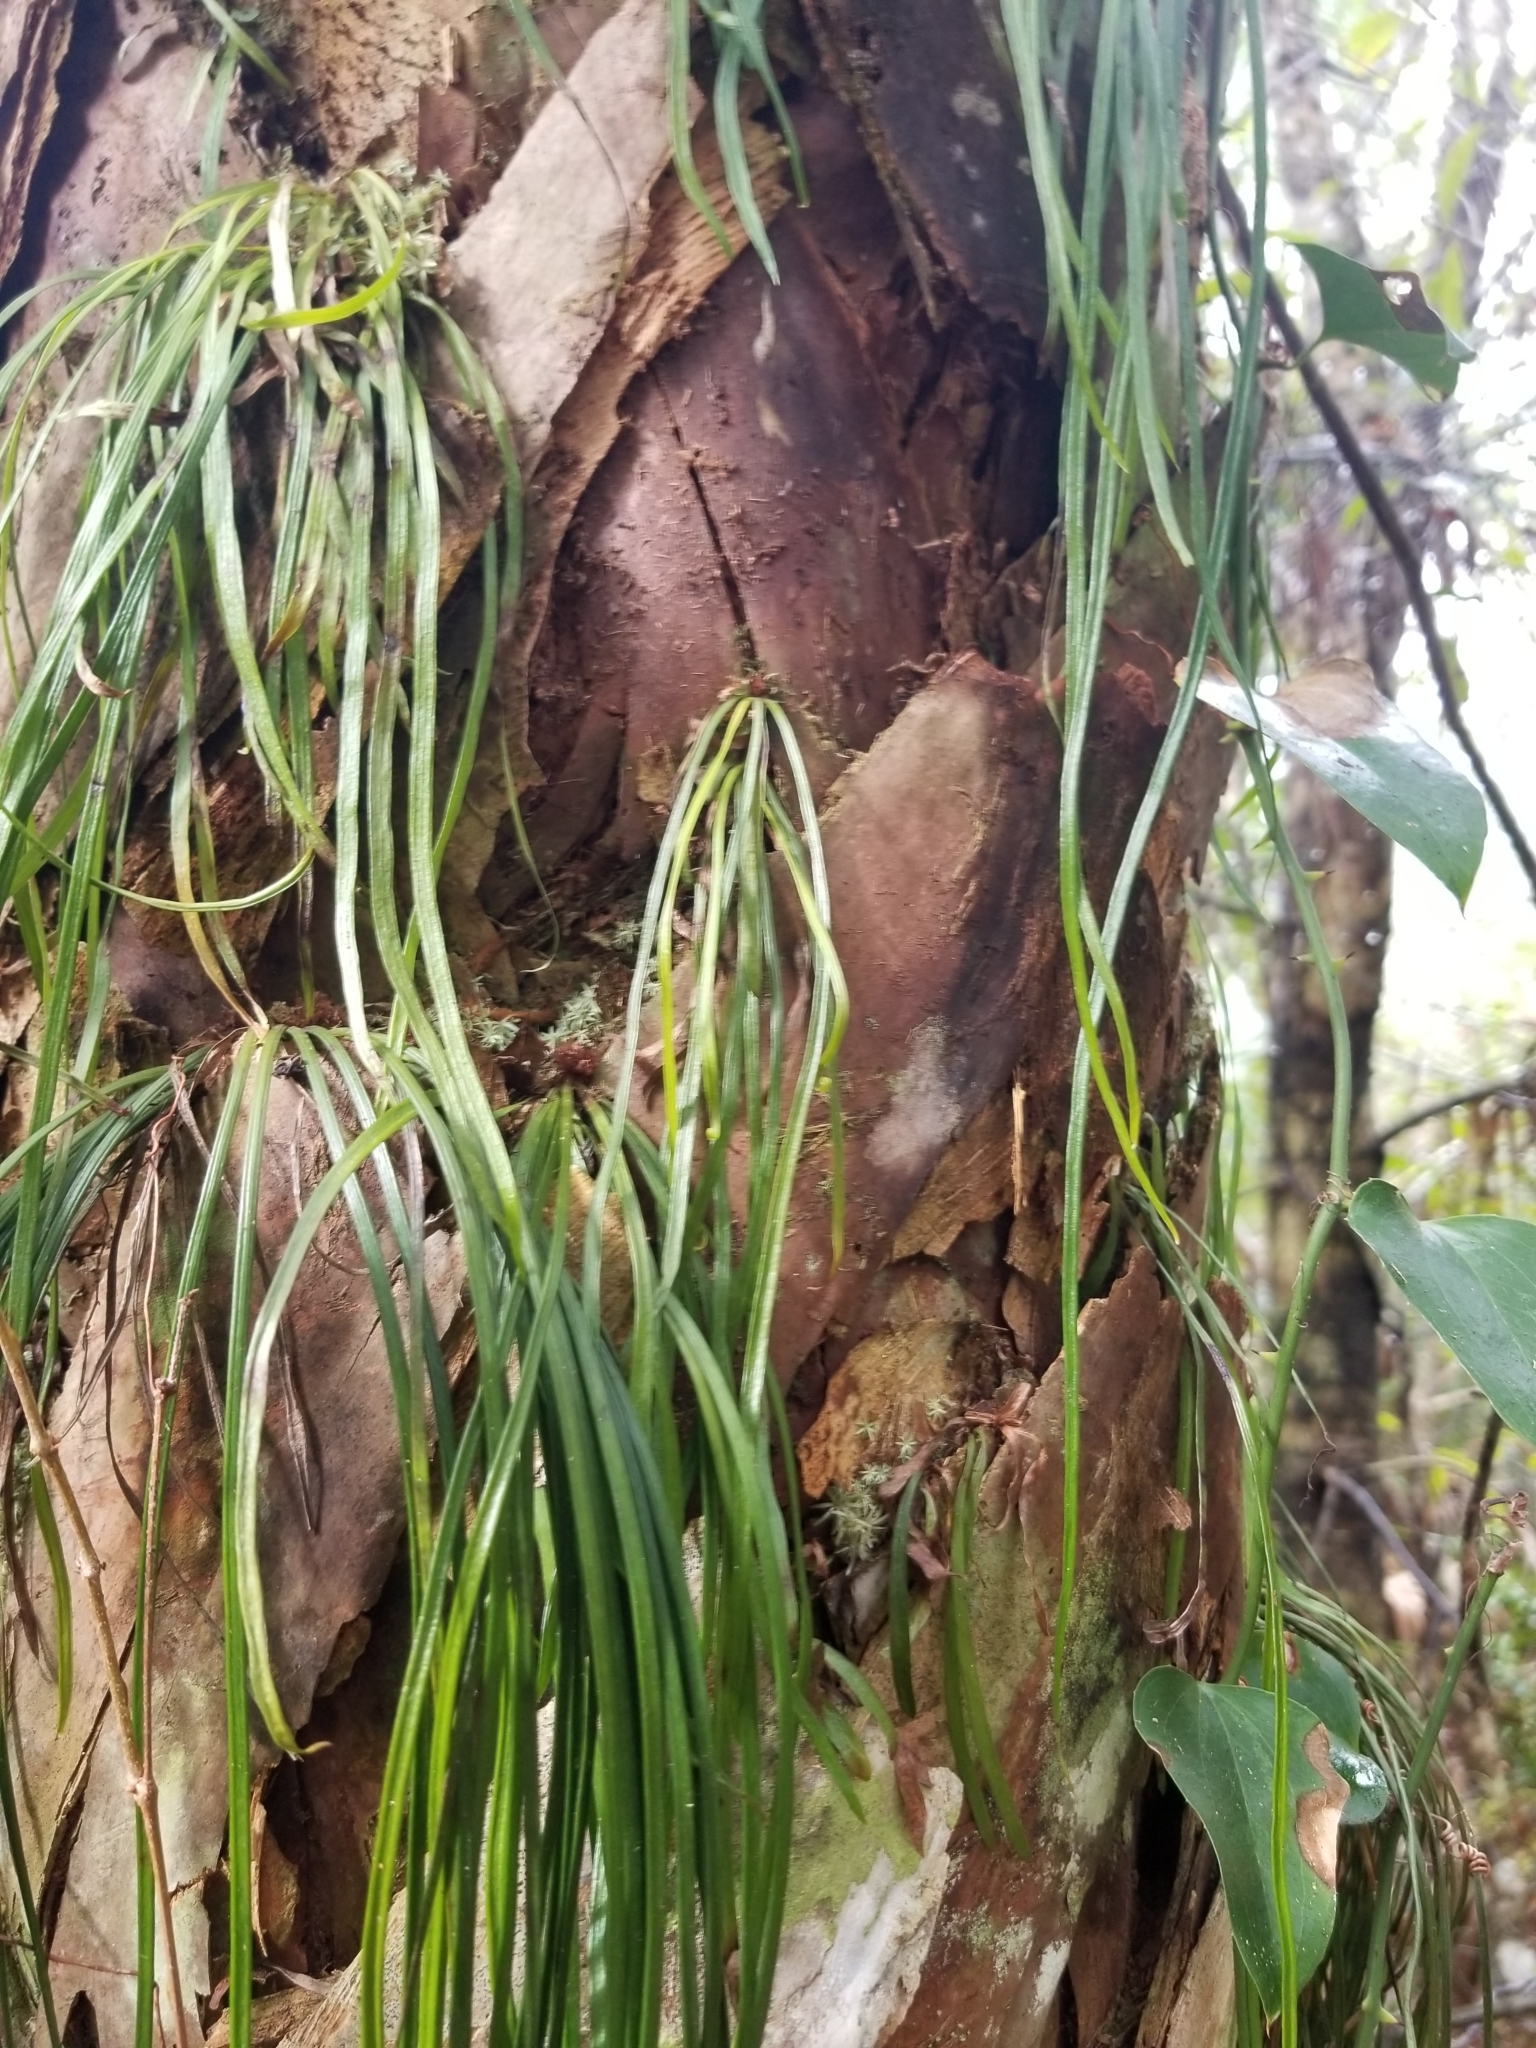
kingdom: Plantae
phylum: Tracheophyta
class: Polypodiopsida
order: Polypodiales
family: Pteridaceae
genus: Vittaria
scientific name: Vittaria lineata
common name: Shoestring fern
